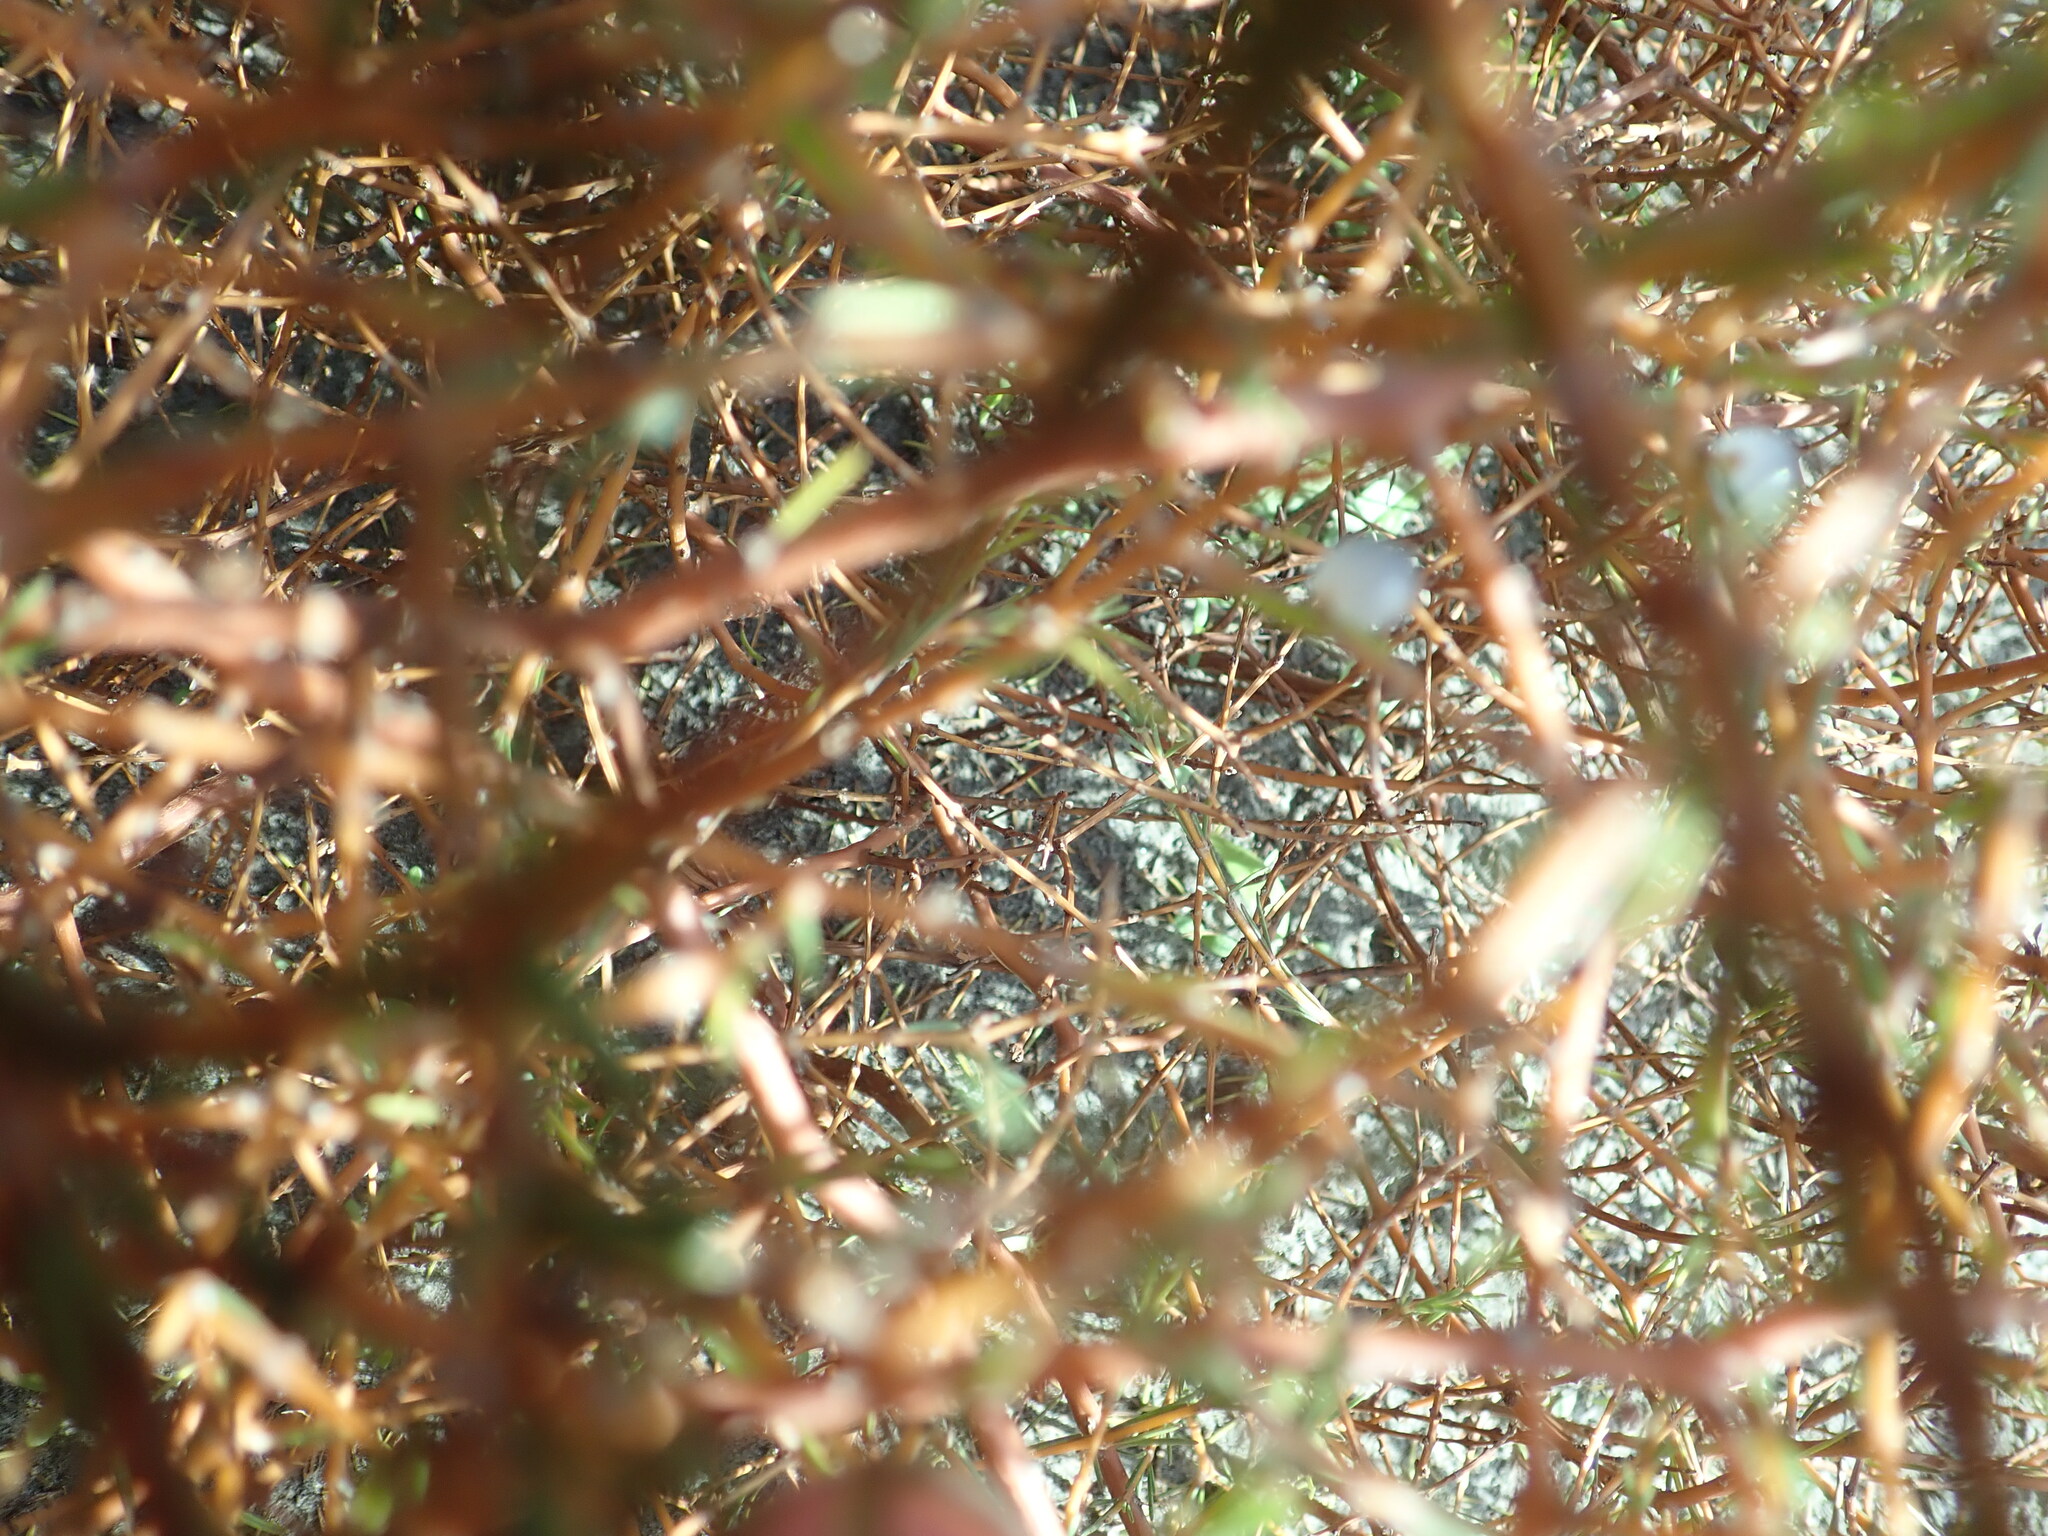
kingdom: Plantae
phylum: Tracheophyta
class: Magnoliopsida
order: Gentianales
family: Rubiaceae
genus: Coprosma
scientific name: Coprosma acerosa
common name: Sand coprosma
